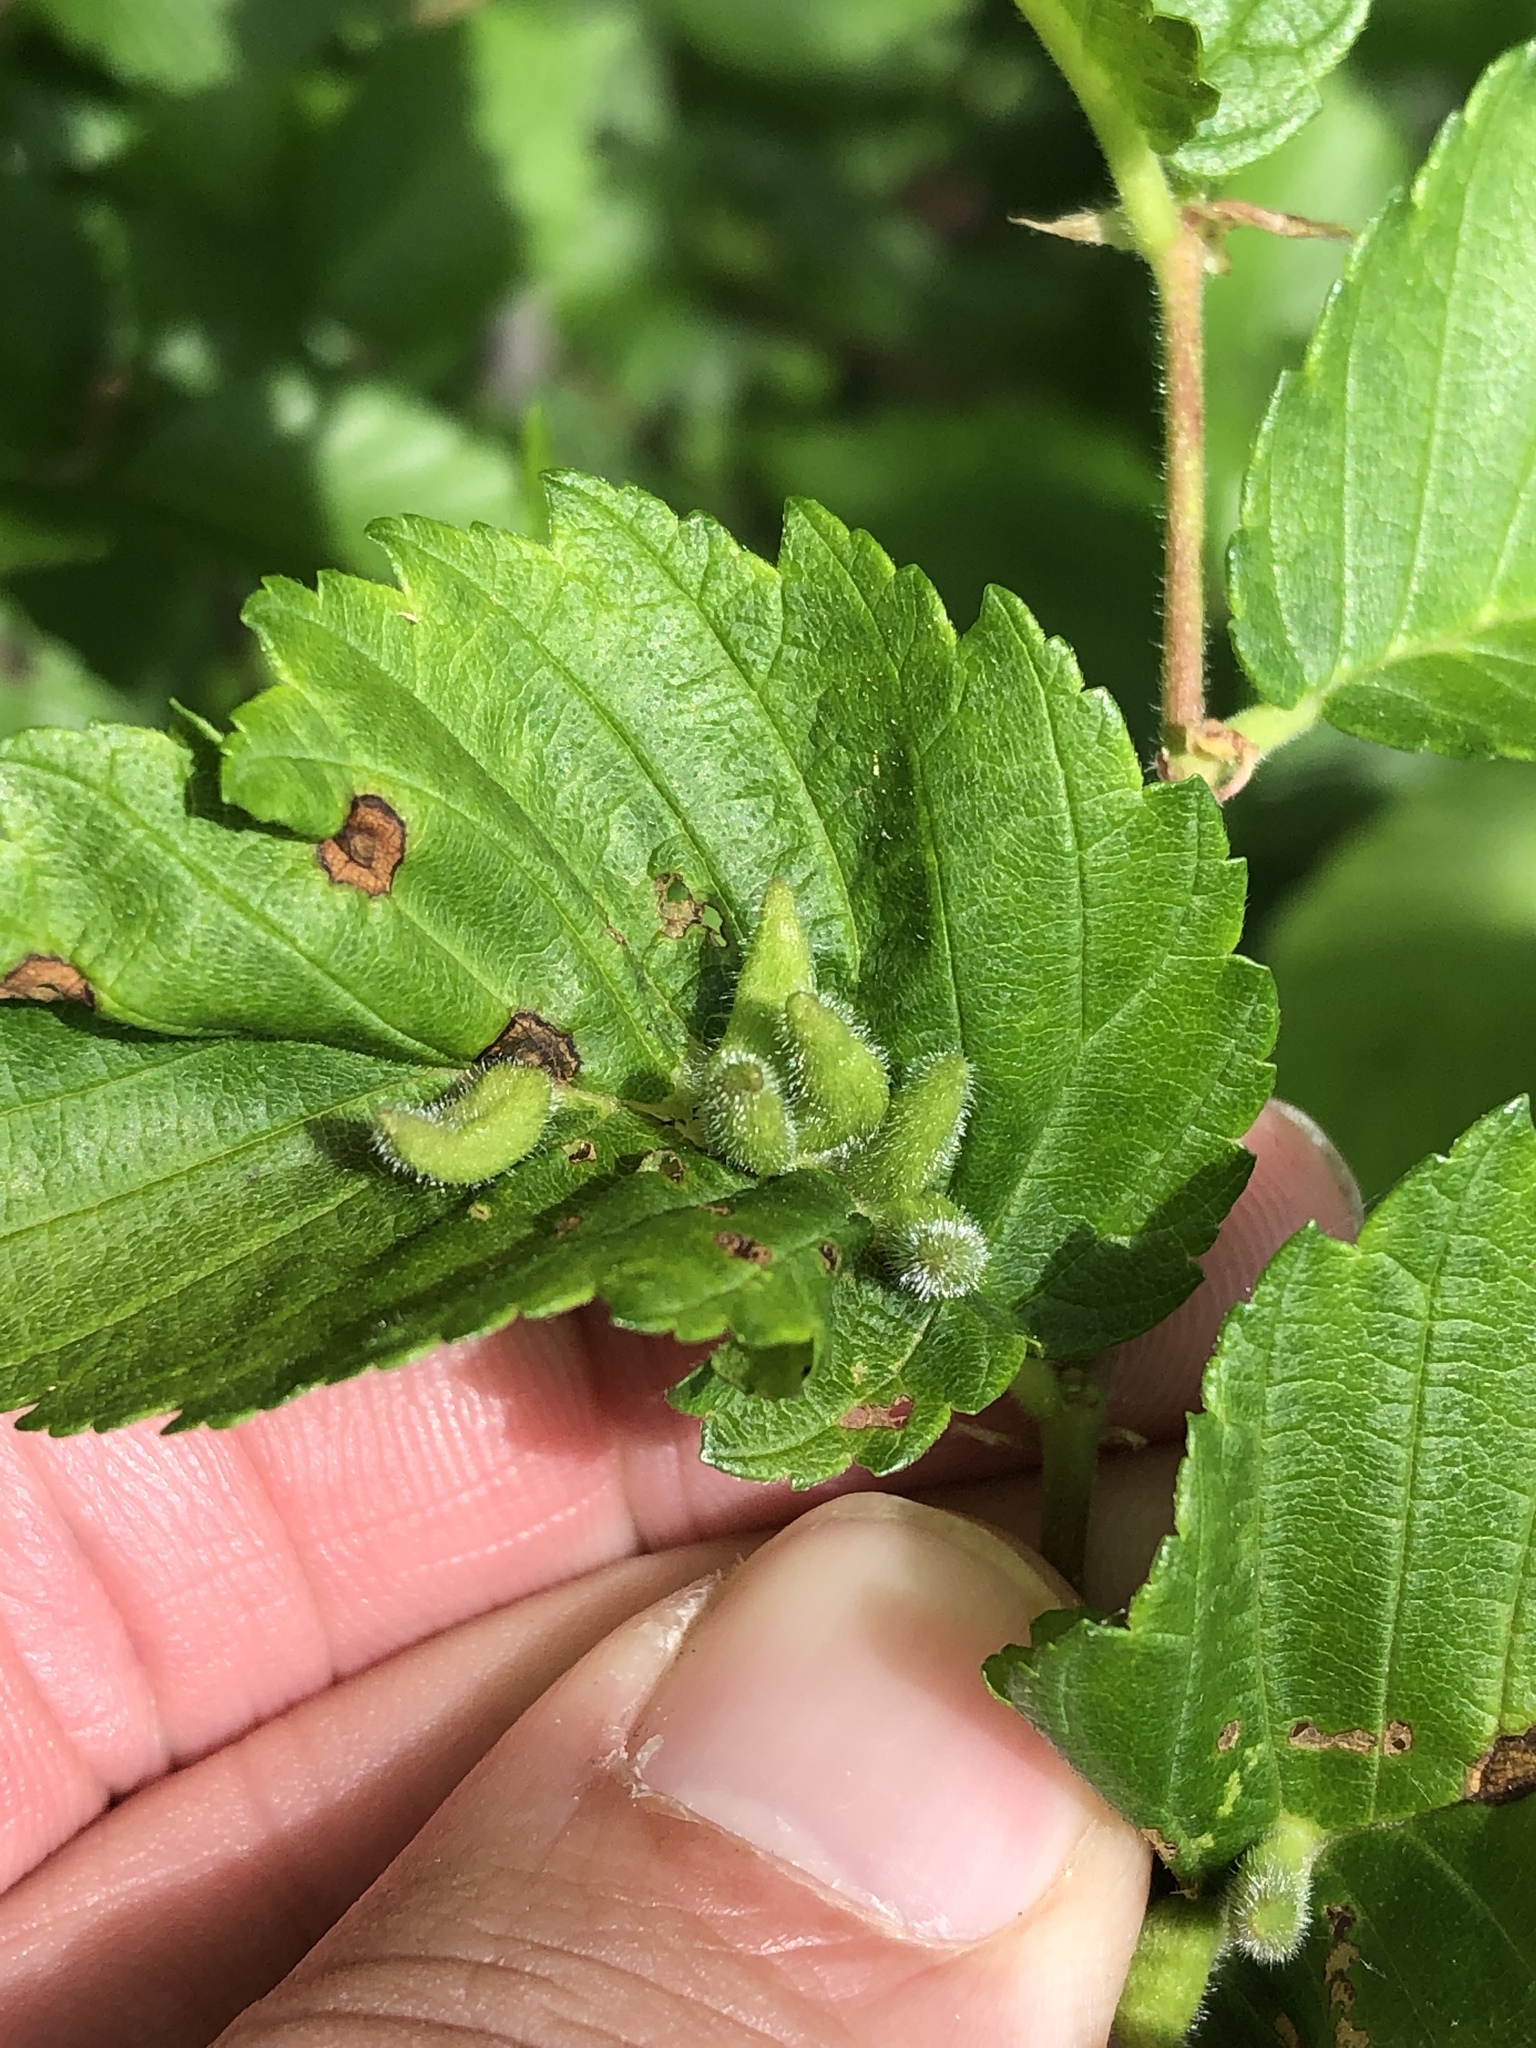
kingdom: Animalia
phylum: Arthropoda
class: Arachnida
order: Trombidiformes
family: Eriophyidae
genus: Aceria
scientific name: Aceria
